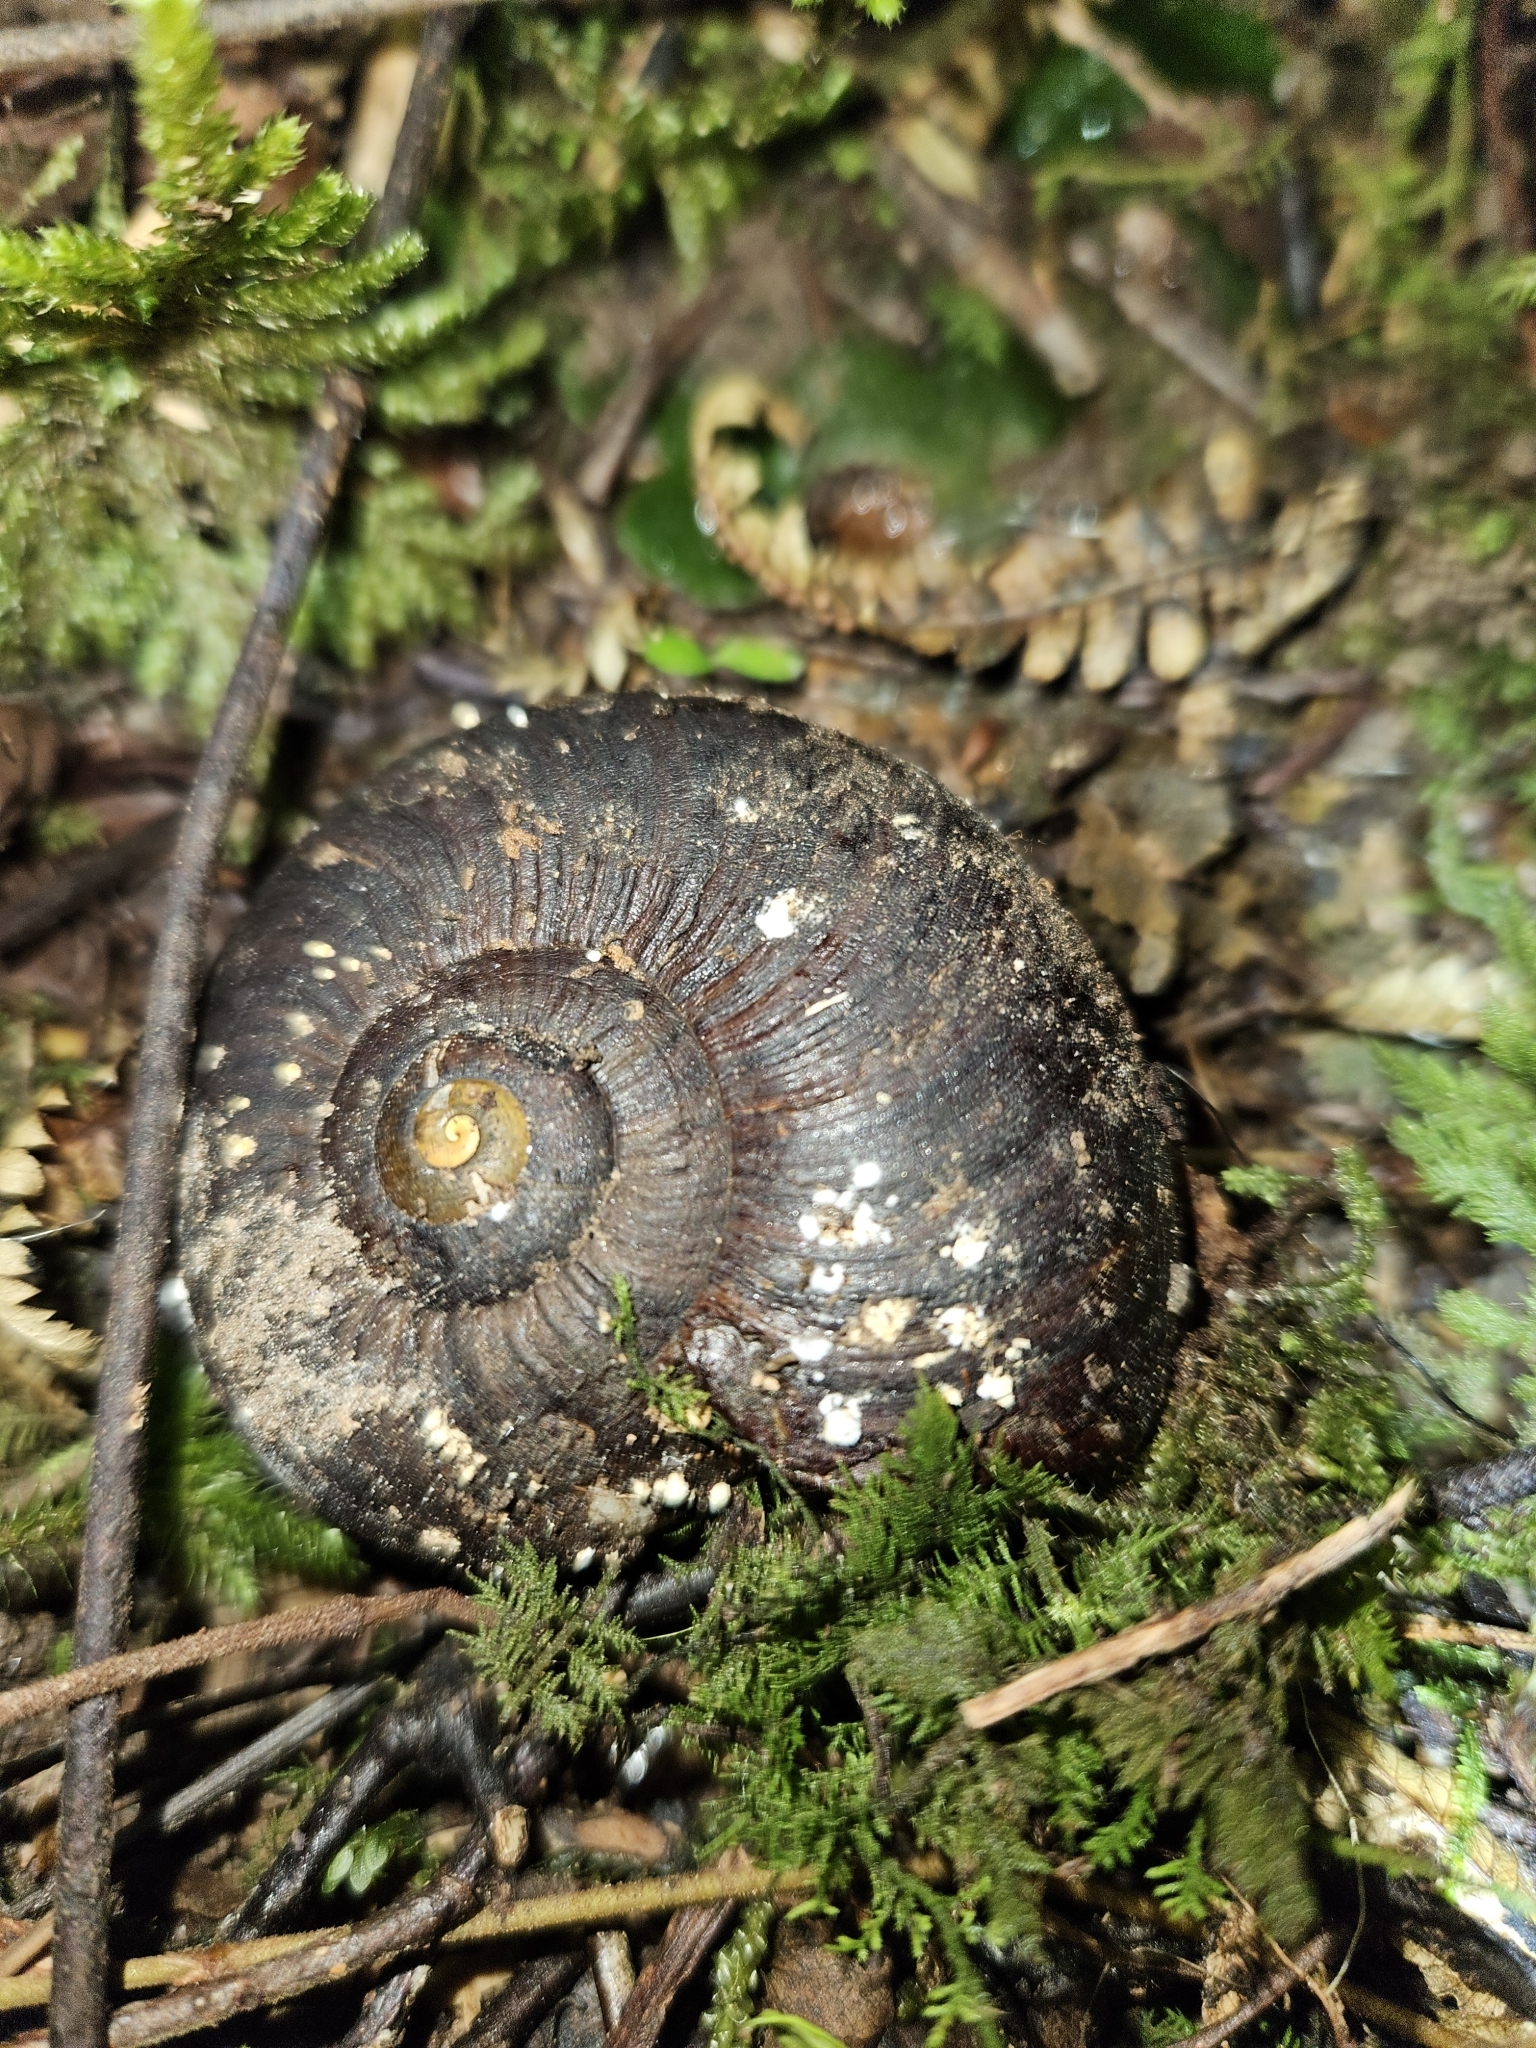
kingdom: Fungi
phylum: Ascomycota
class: Eurotiomycetes
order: Onygenales
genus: Harorepupu
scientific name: Harorepupu aotearoa
